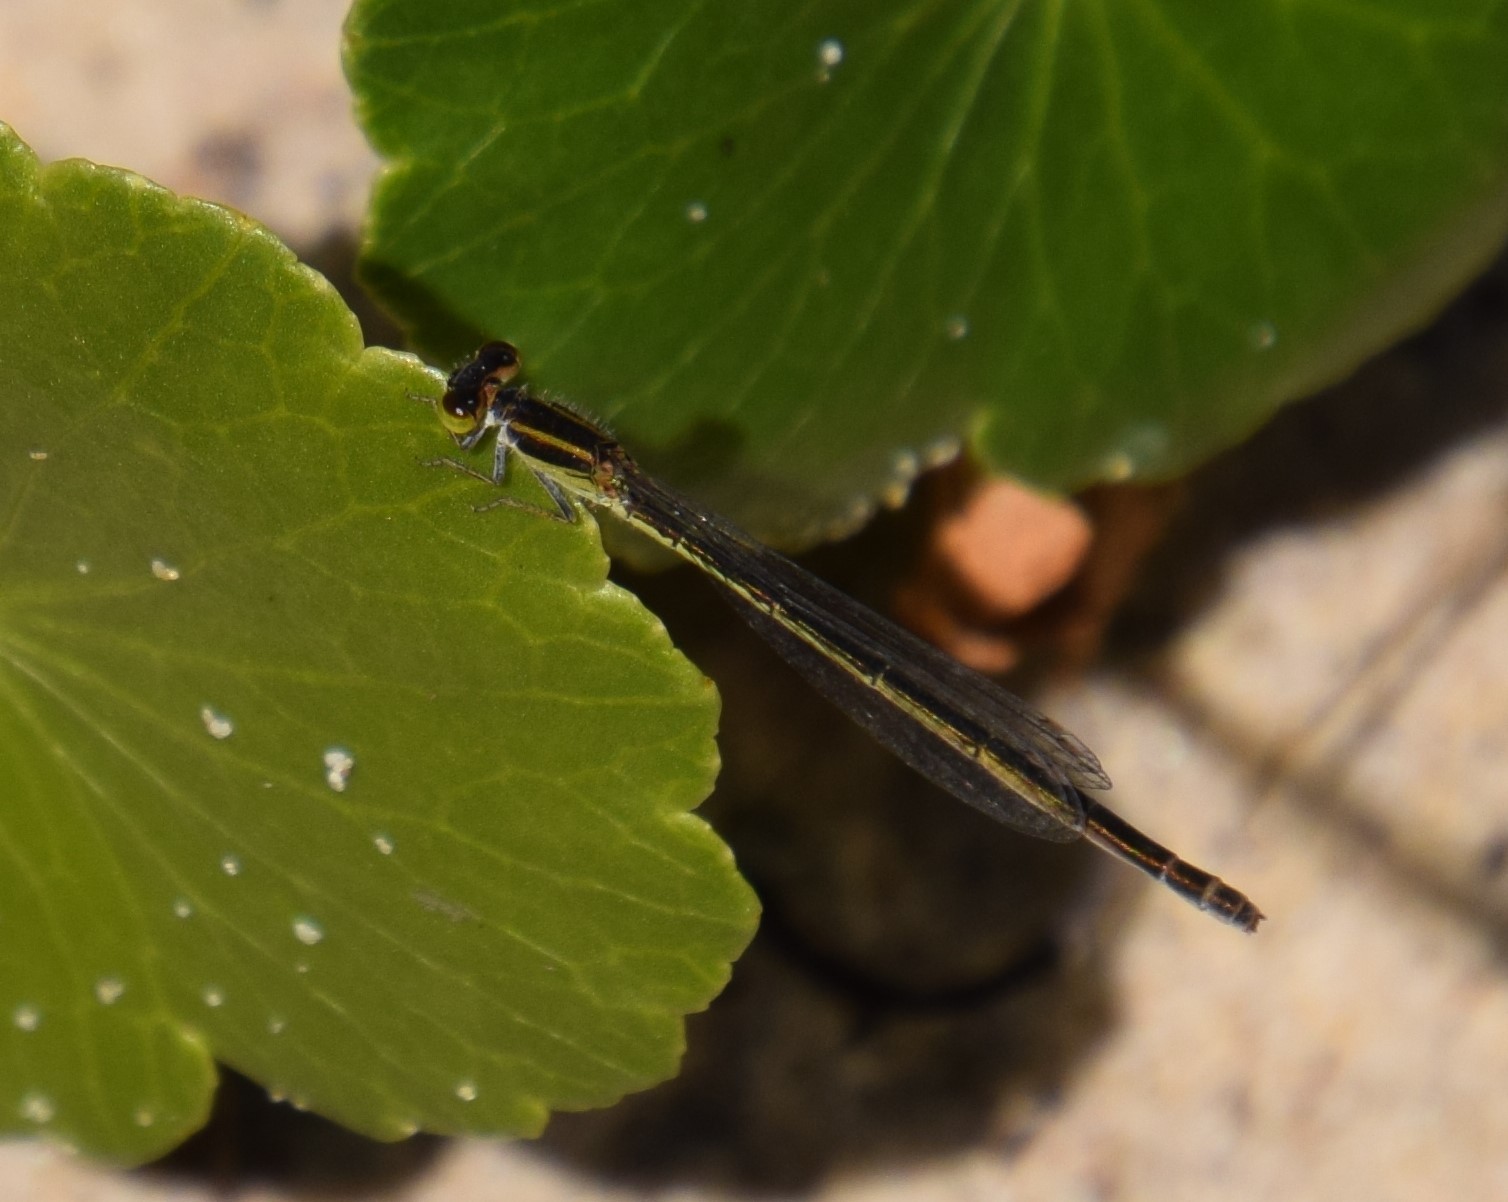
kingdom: Animalia
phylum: Arthropoda
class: Insecta
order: Odonata
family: Coenagrionidae
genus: Ischnura
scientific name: Ischnura aurora
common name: Gossamer damselfly
